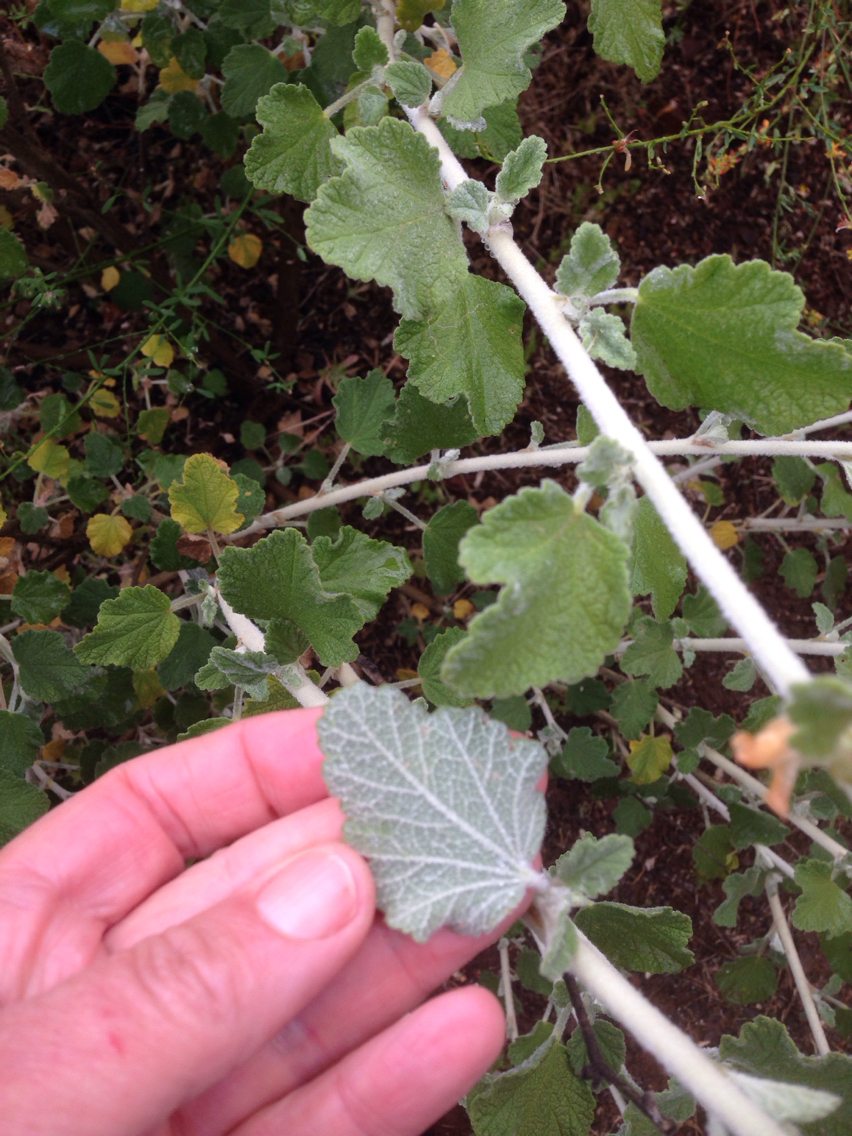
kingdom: Plantae
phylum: Tracheophyta
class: Magnoliopsida
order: Malvales
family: Malvaceae
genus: Malacothamnus
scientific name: Malacothamnus fasciculatus
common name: Sant cruz island bush-mallow
